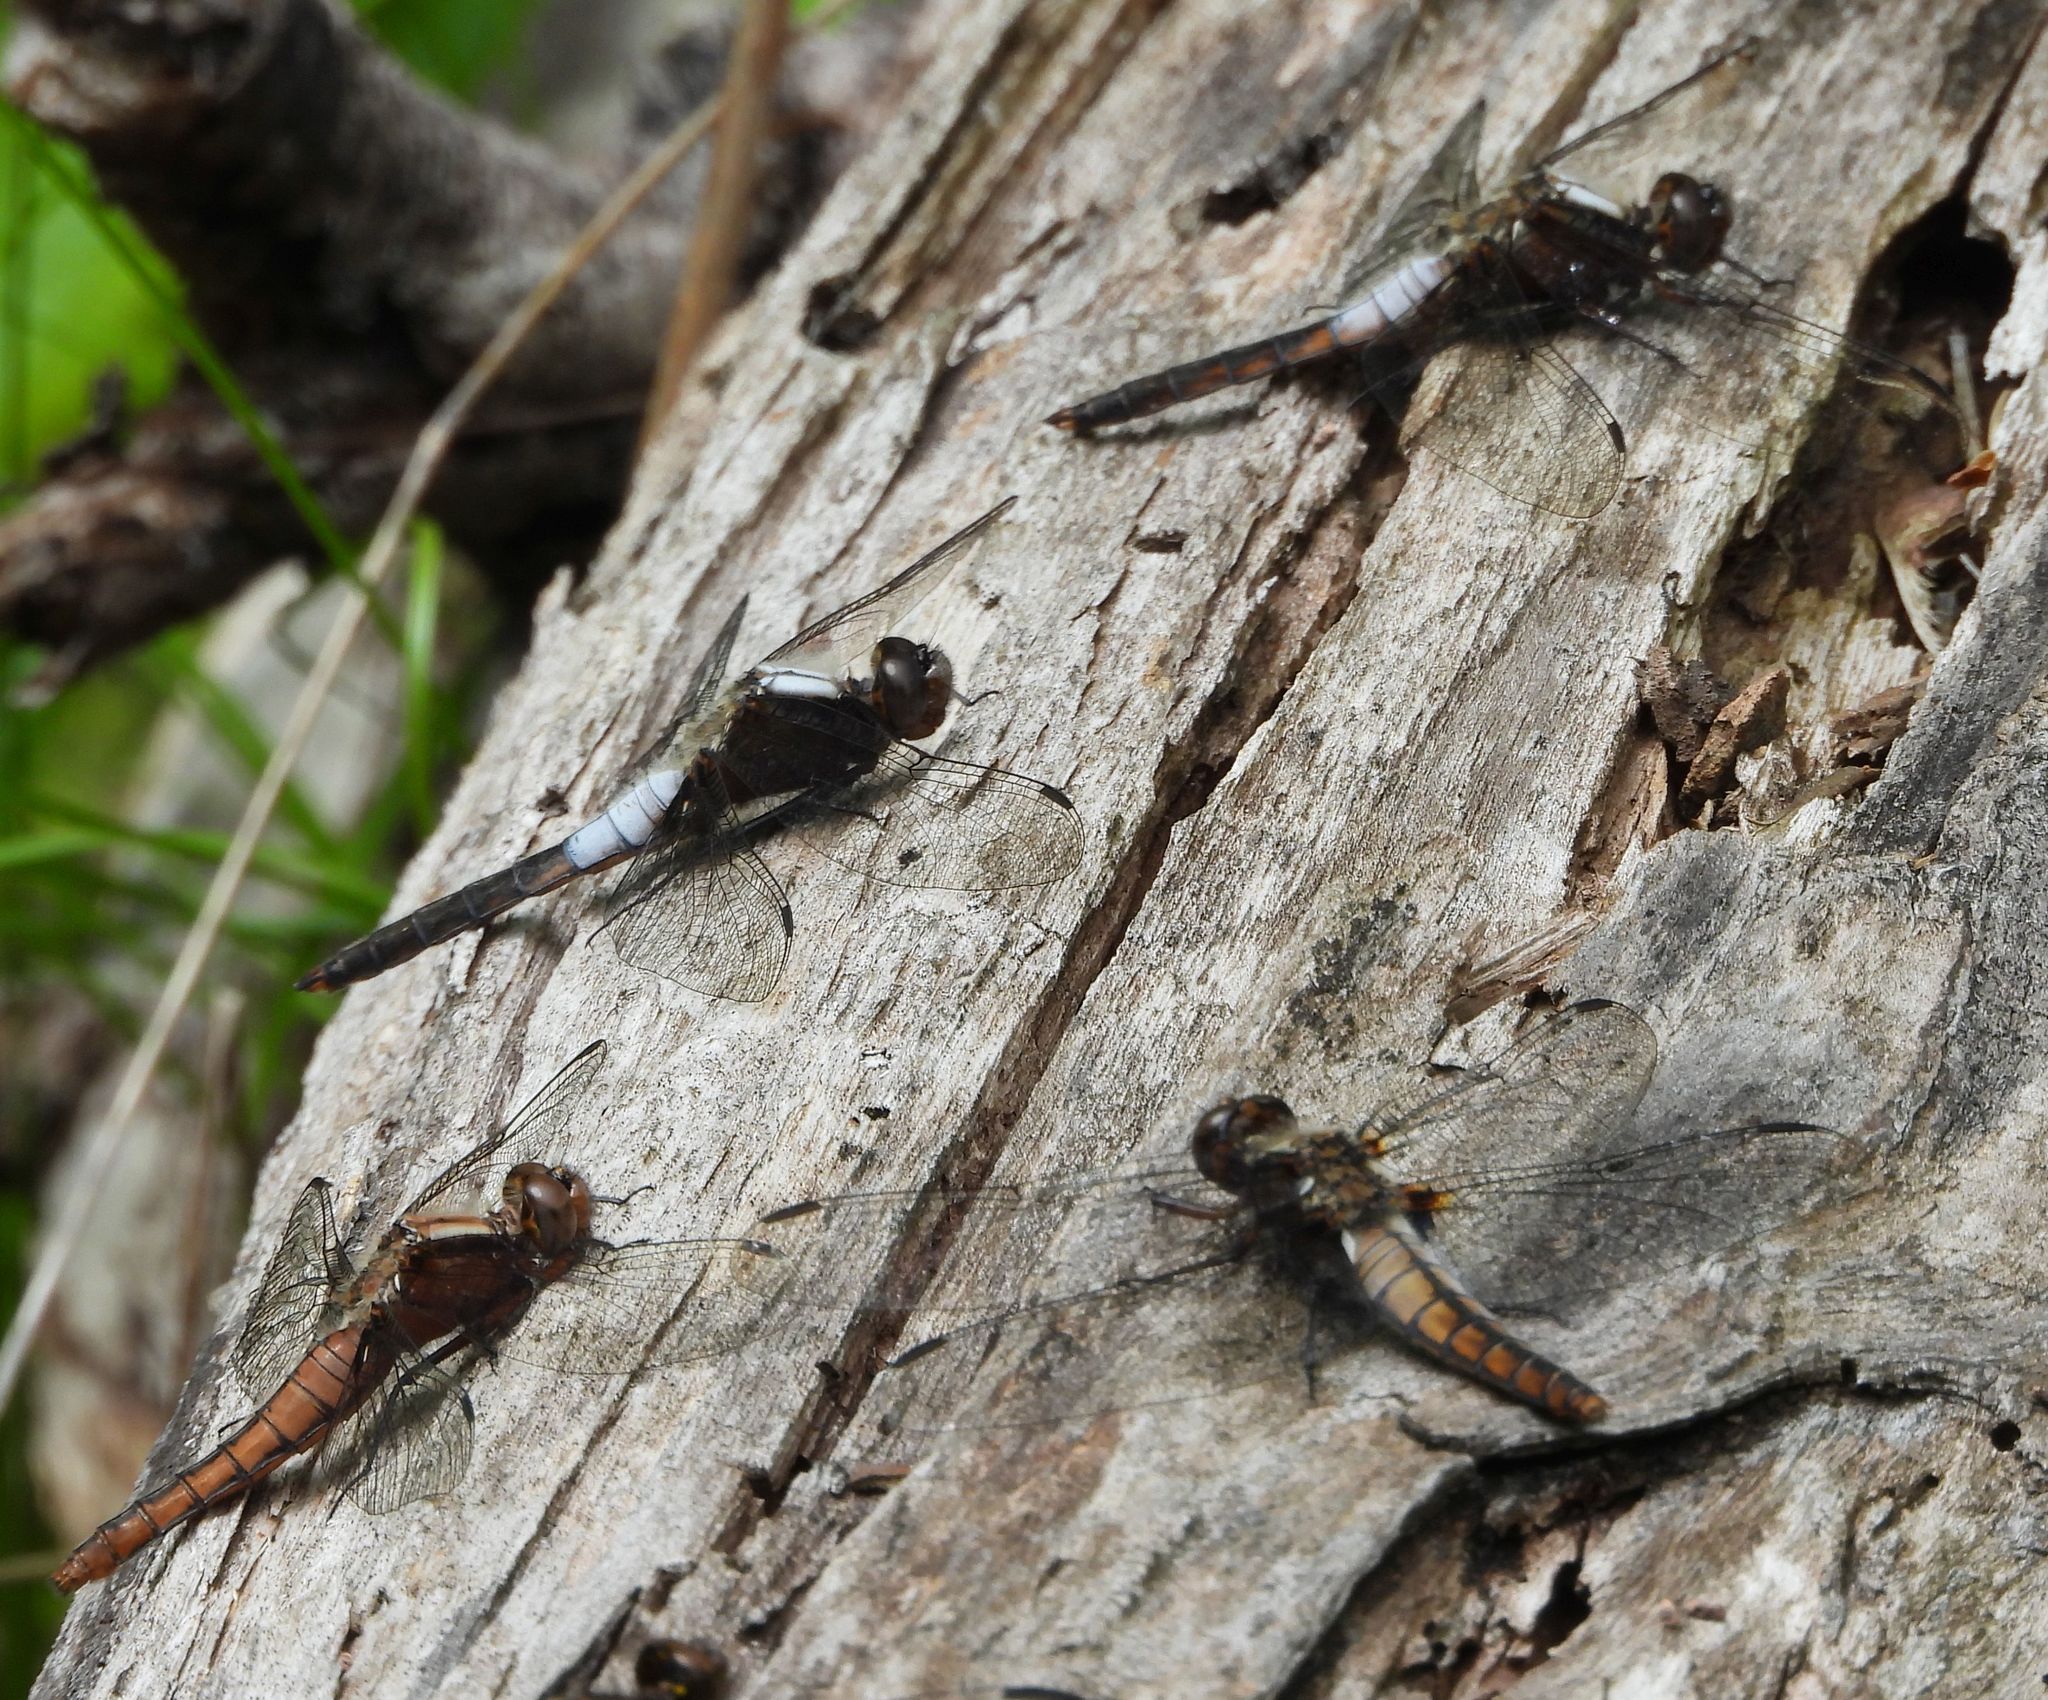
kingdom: Animalia
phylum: Arthropoda
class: Insecta
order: Odonata
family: Libellulidae
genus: Ladona
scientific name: Ladona julia
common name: Chalk-fronted corporal
